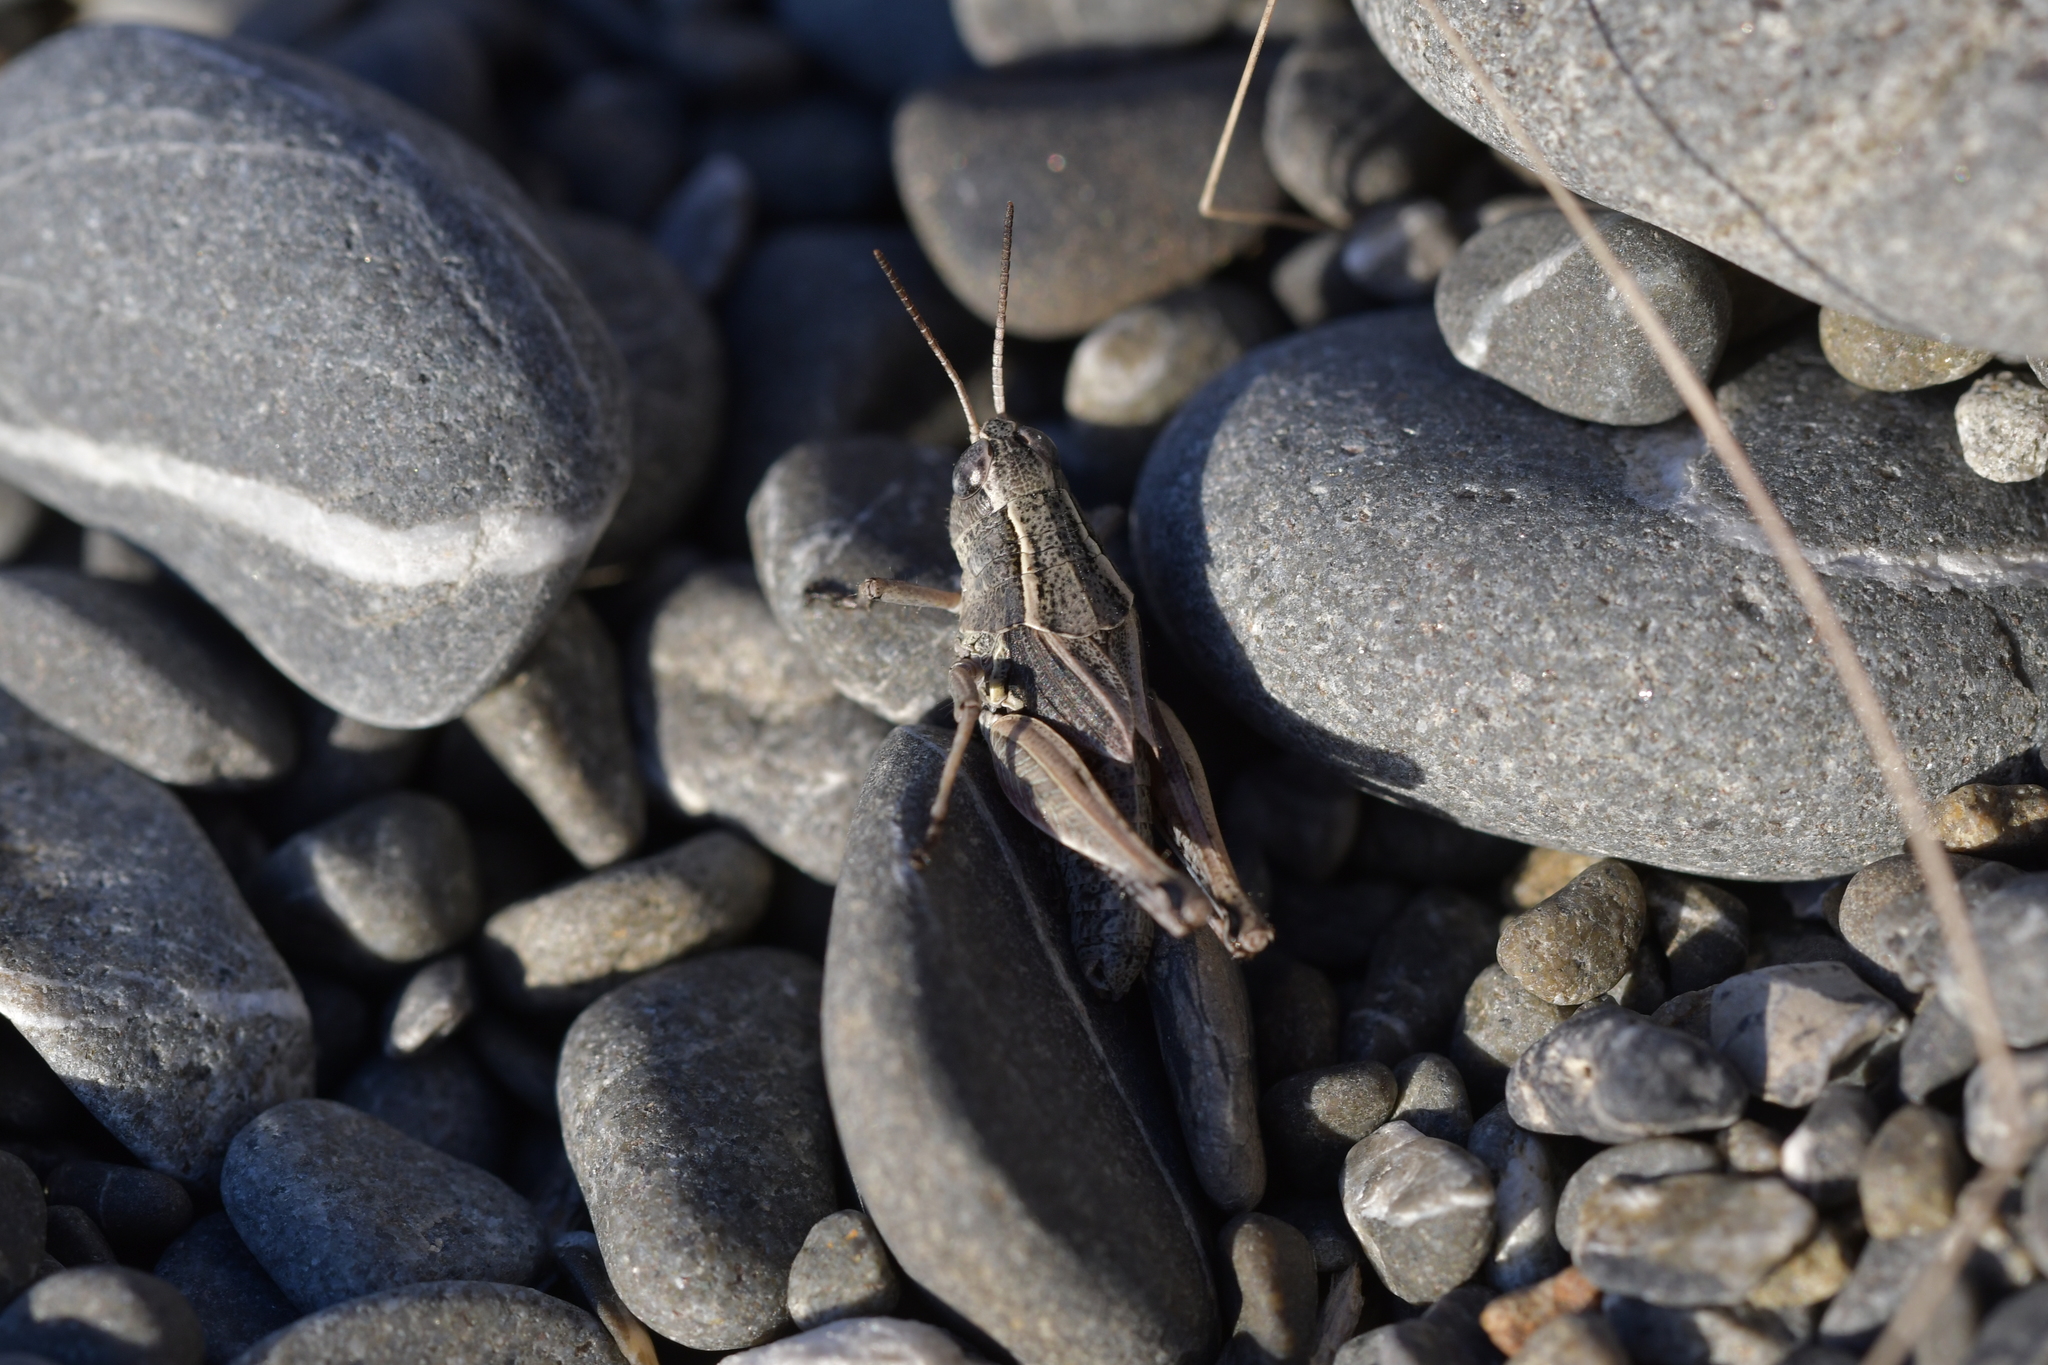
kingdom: Animalia
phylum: Arthropoda
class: Insecta
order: Orthoptera
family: Acrididae
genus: Phaulacridium
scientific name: Phaulacridium marginale
